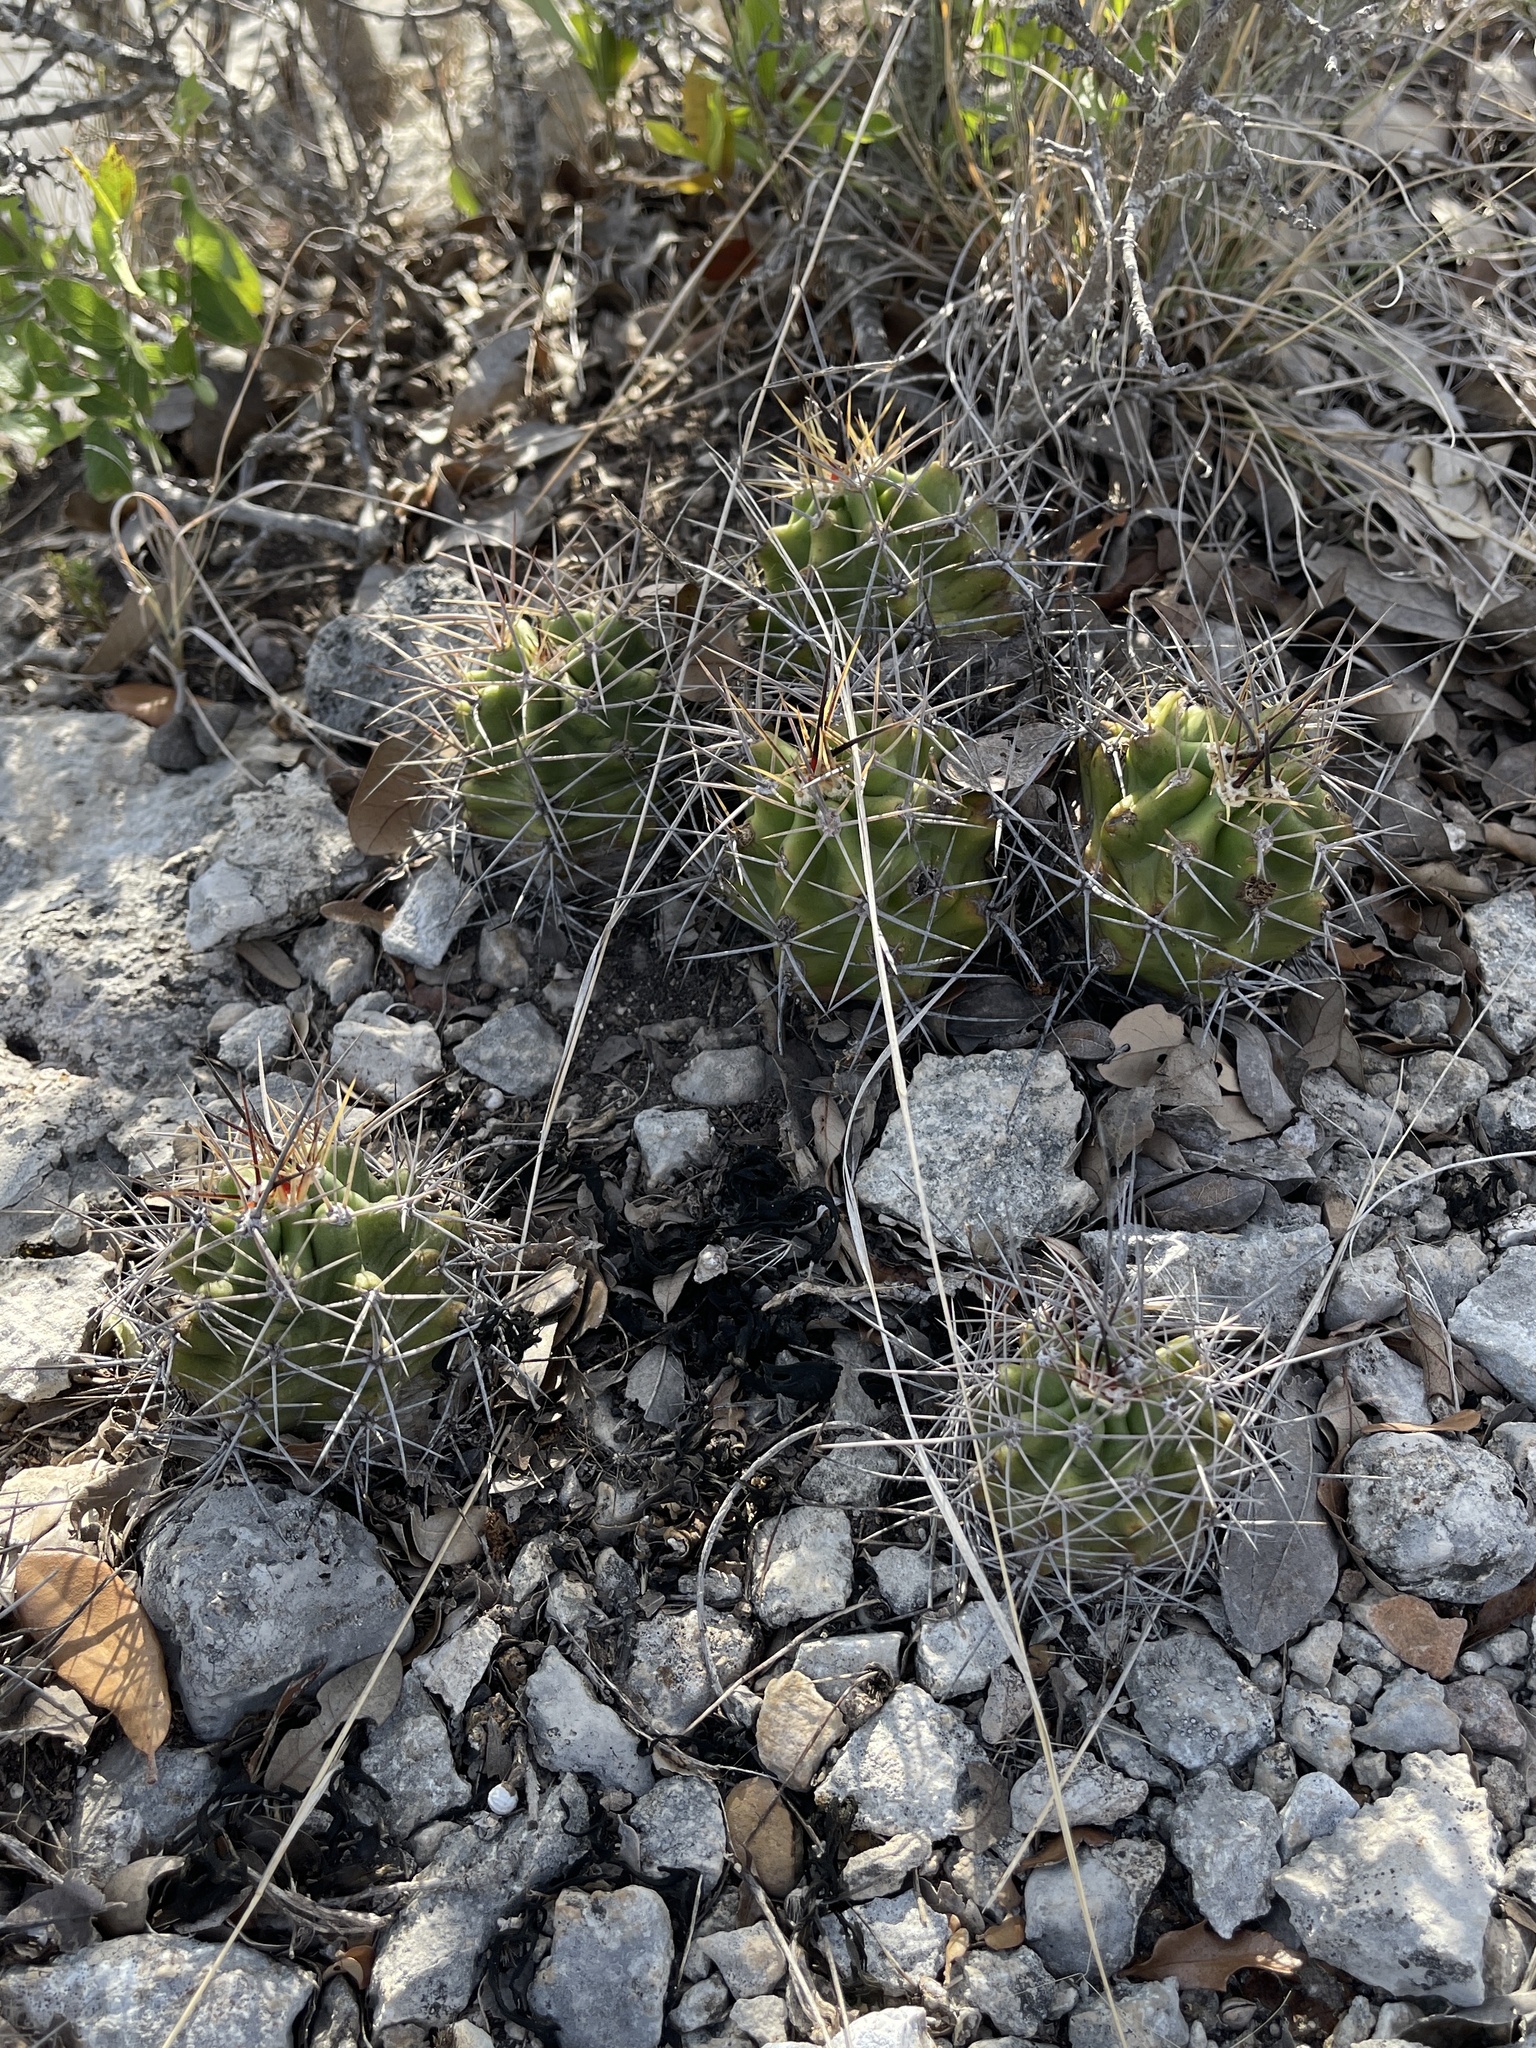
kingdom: Plantae
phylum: Tracheophyta
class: Magnoliopsida
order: Caryophyllales
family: Cactaceae
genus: Echinocereus
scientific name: Echinocereus coccineus
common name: Scarlet hedgehog cactus
